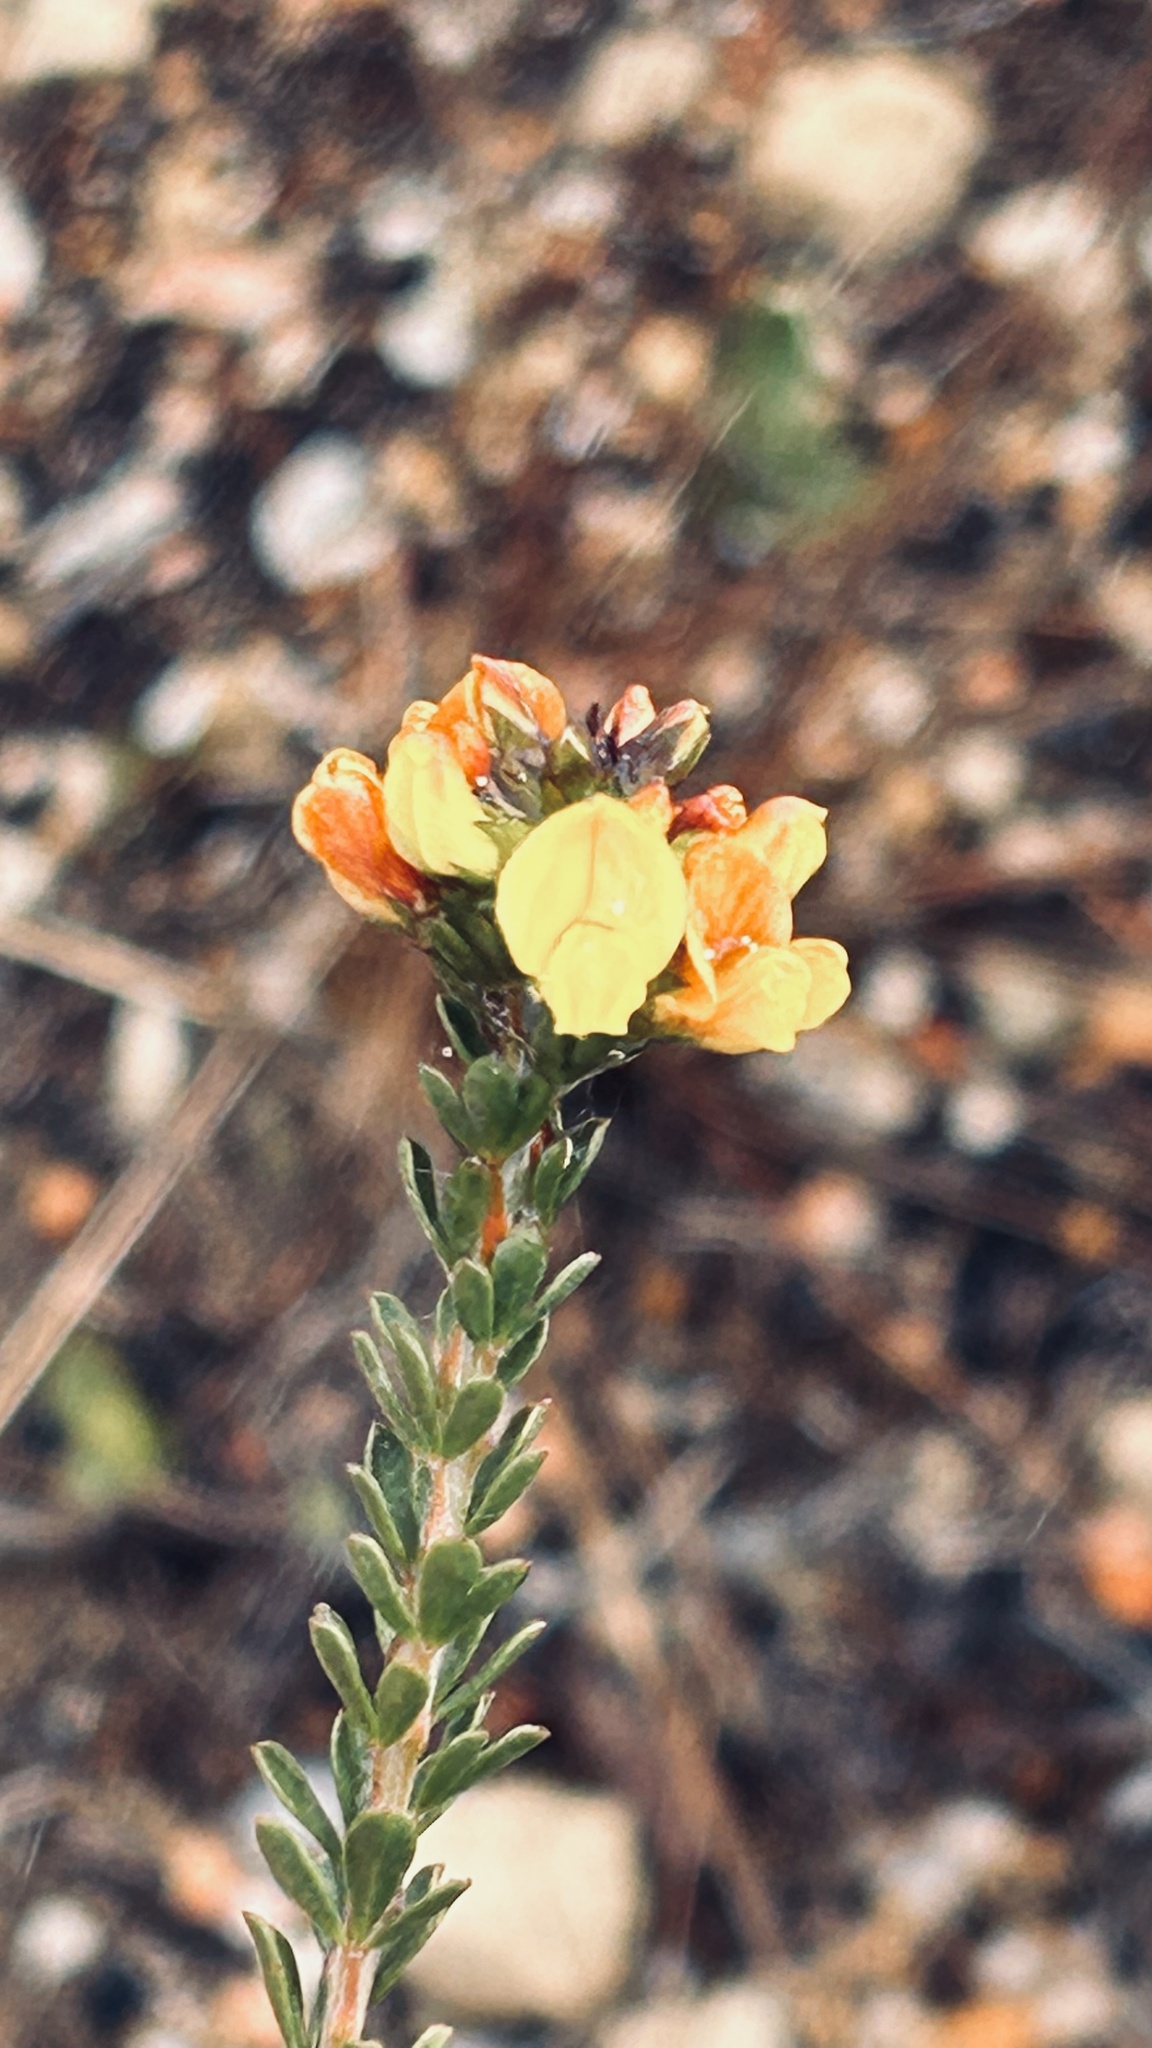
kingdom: Plantae
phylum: Tracheophyta
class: Magnoliopsida
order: Fabales
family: Fabaceae
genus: Wiborgiella
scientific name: Wiborgiella sessilifolia
